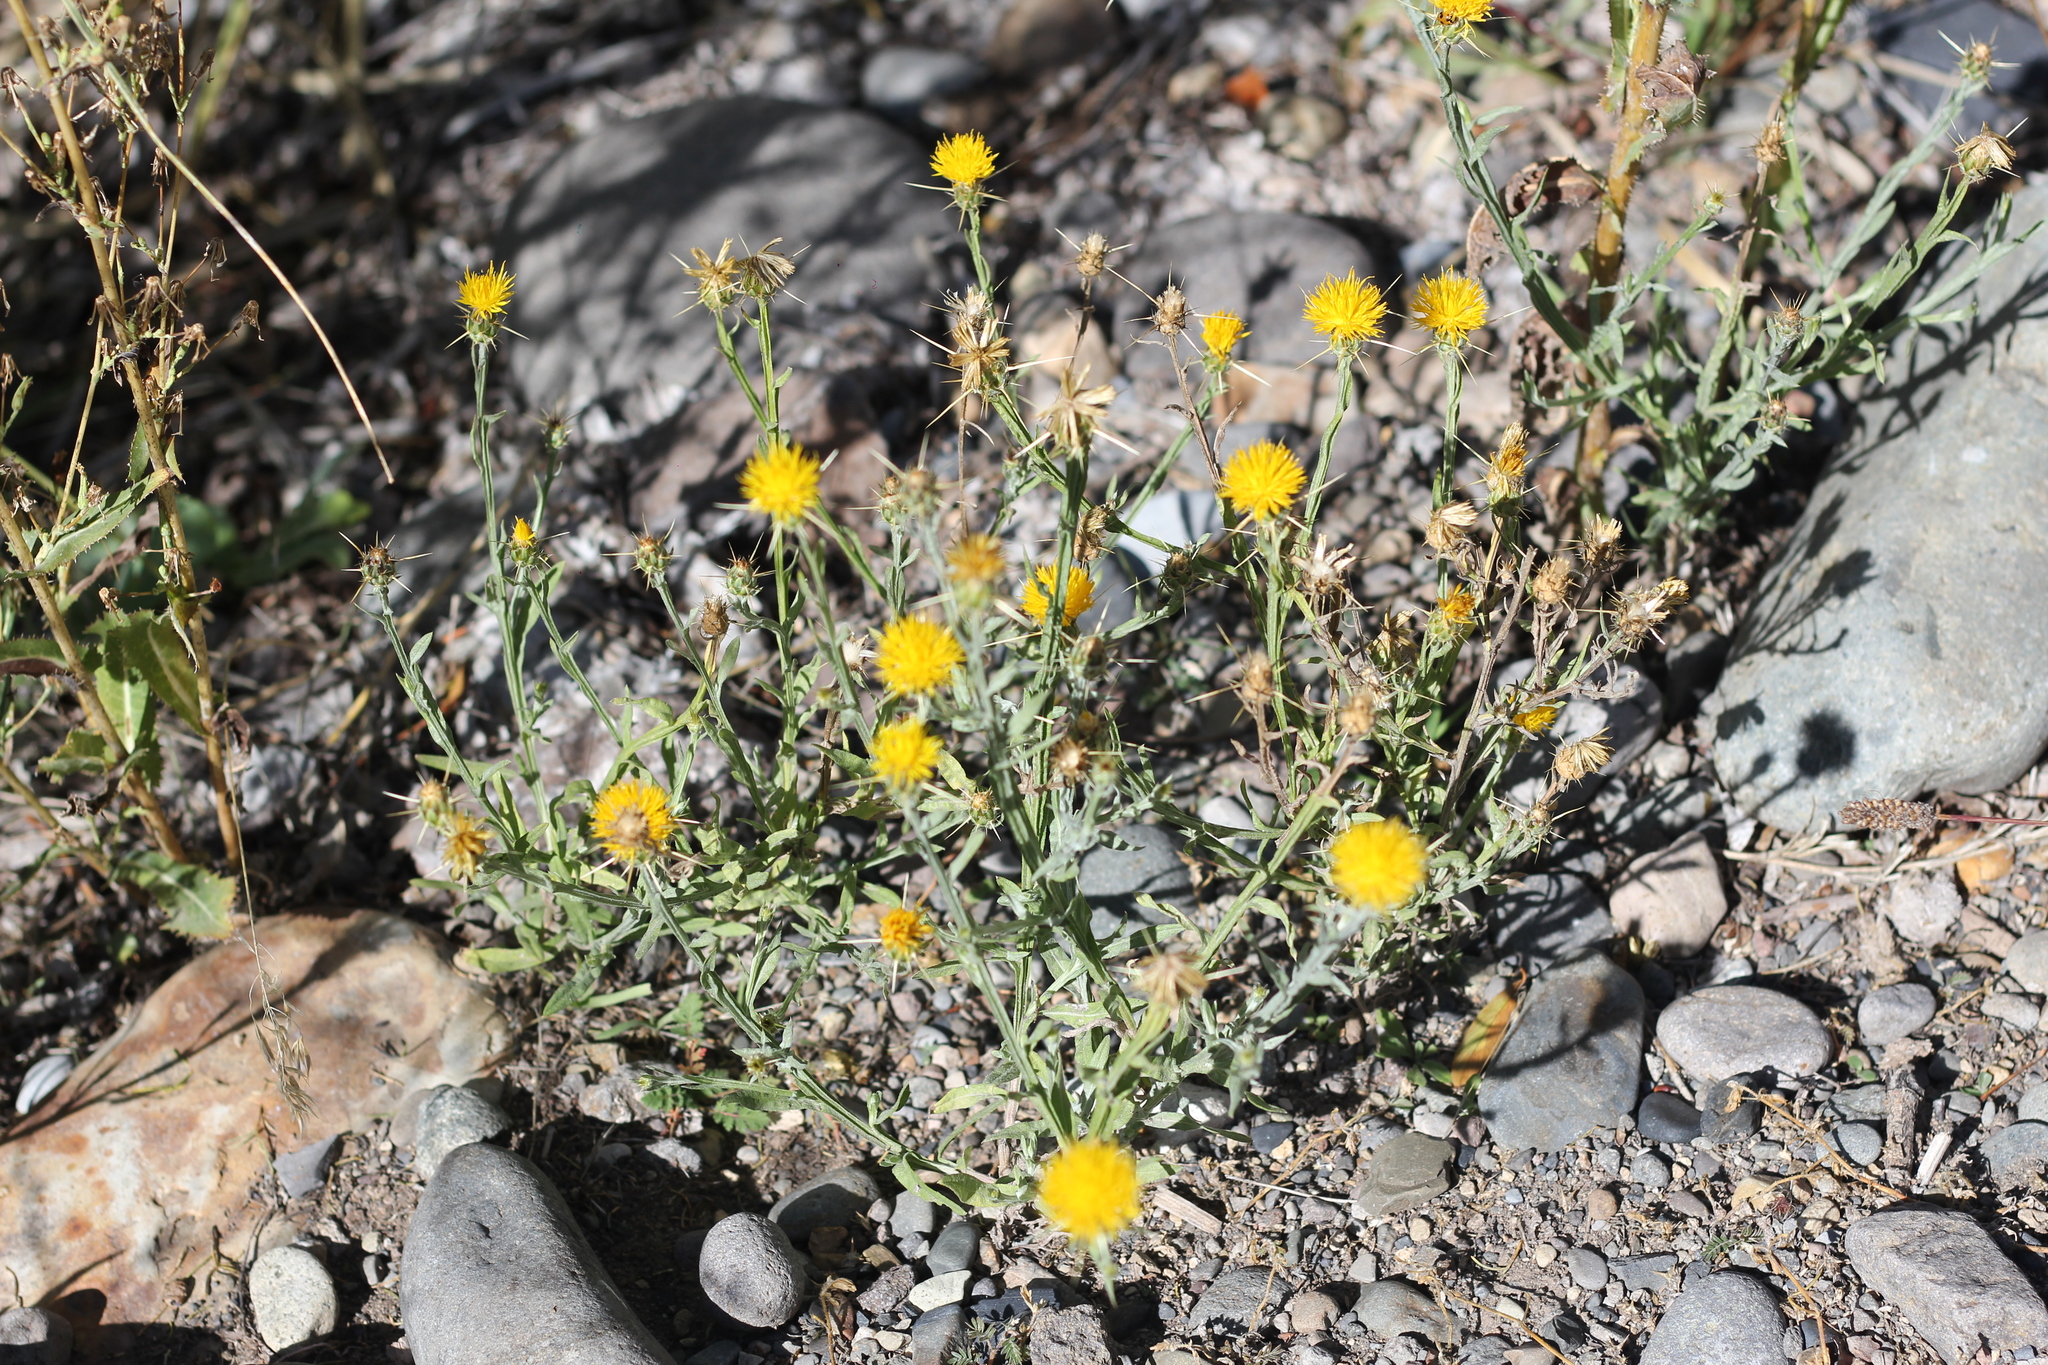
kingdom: Plantae
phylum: Tracheophyta
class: Magnoliopsida
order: Asterales
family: Asteraceae
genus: Centaurea
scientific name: Centaurea solstitialis
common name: Yellow star-thistle
